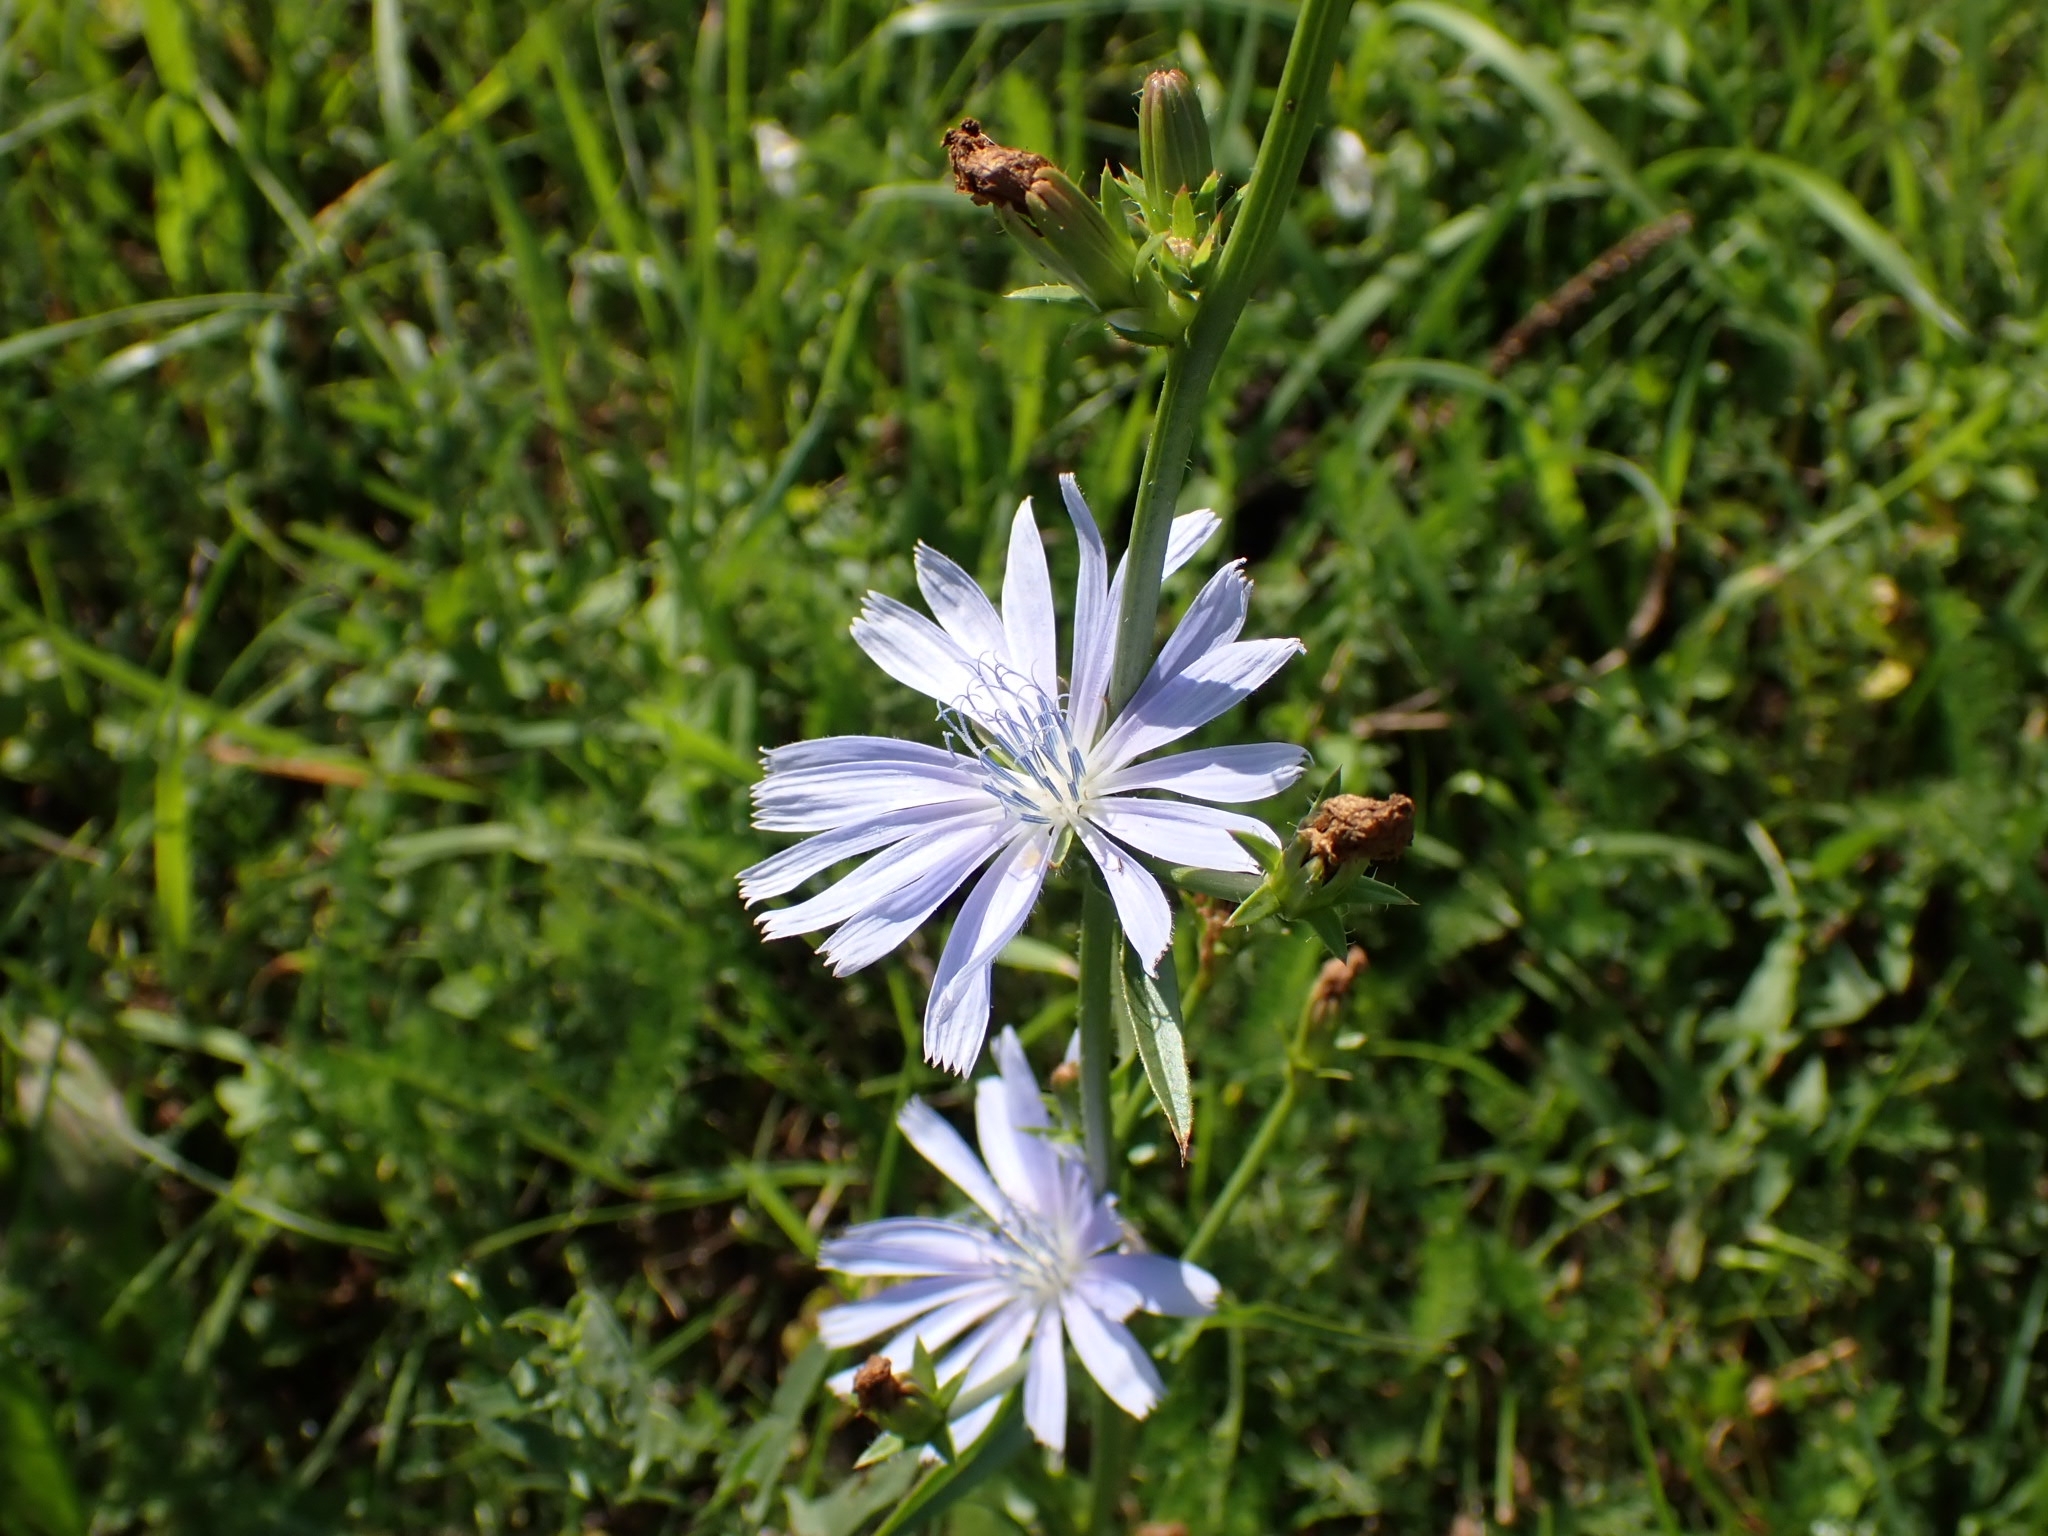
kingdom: Plantae
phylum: Tracheophyta
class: Magnoliopsida
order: Asterales
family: Asteraceae
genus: Cichorium
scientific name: Cichorium intybus
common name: Chicory
